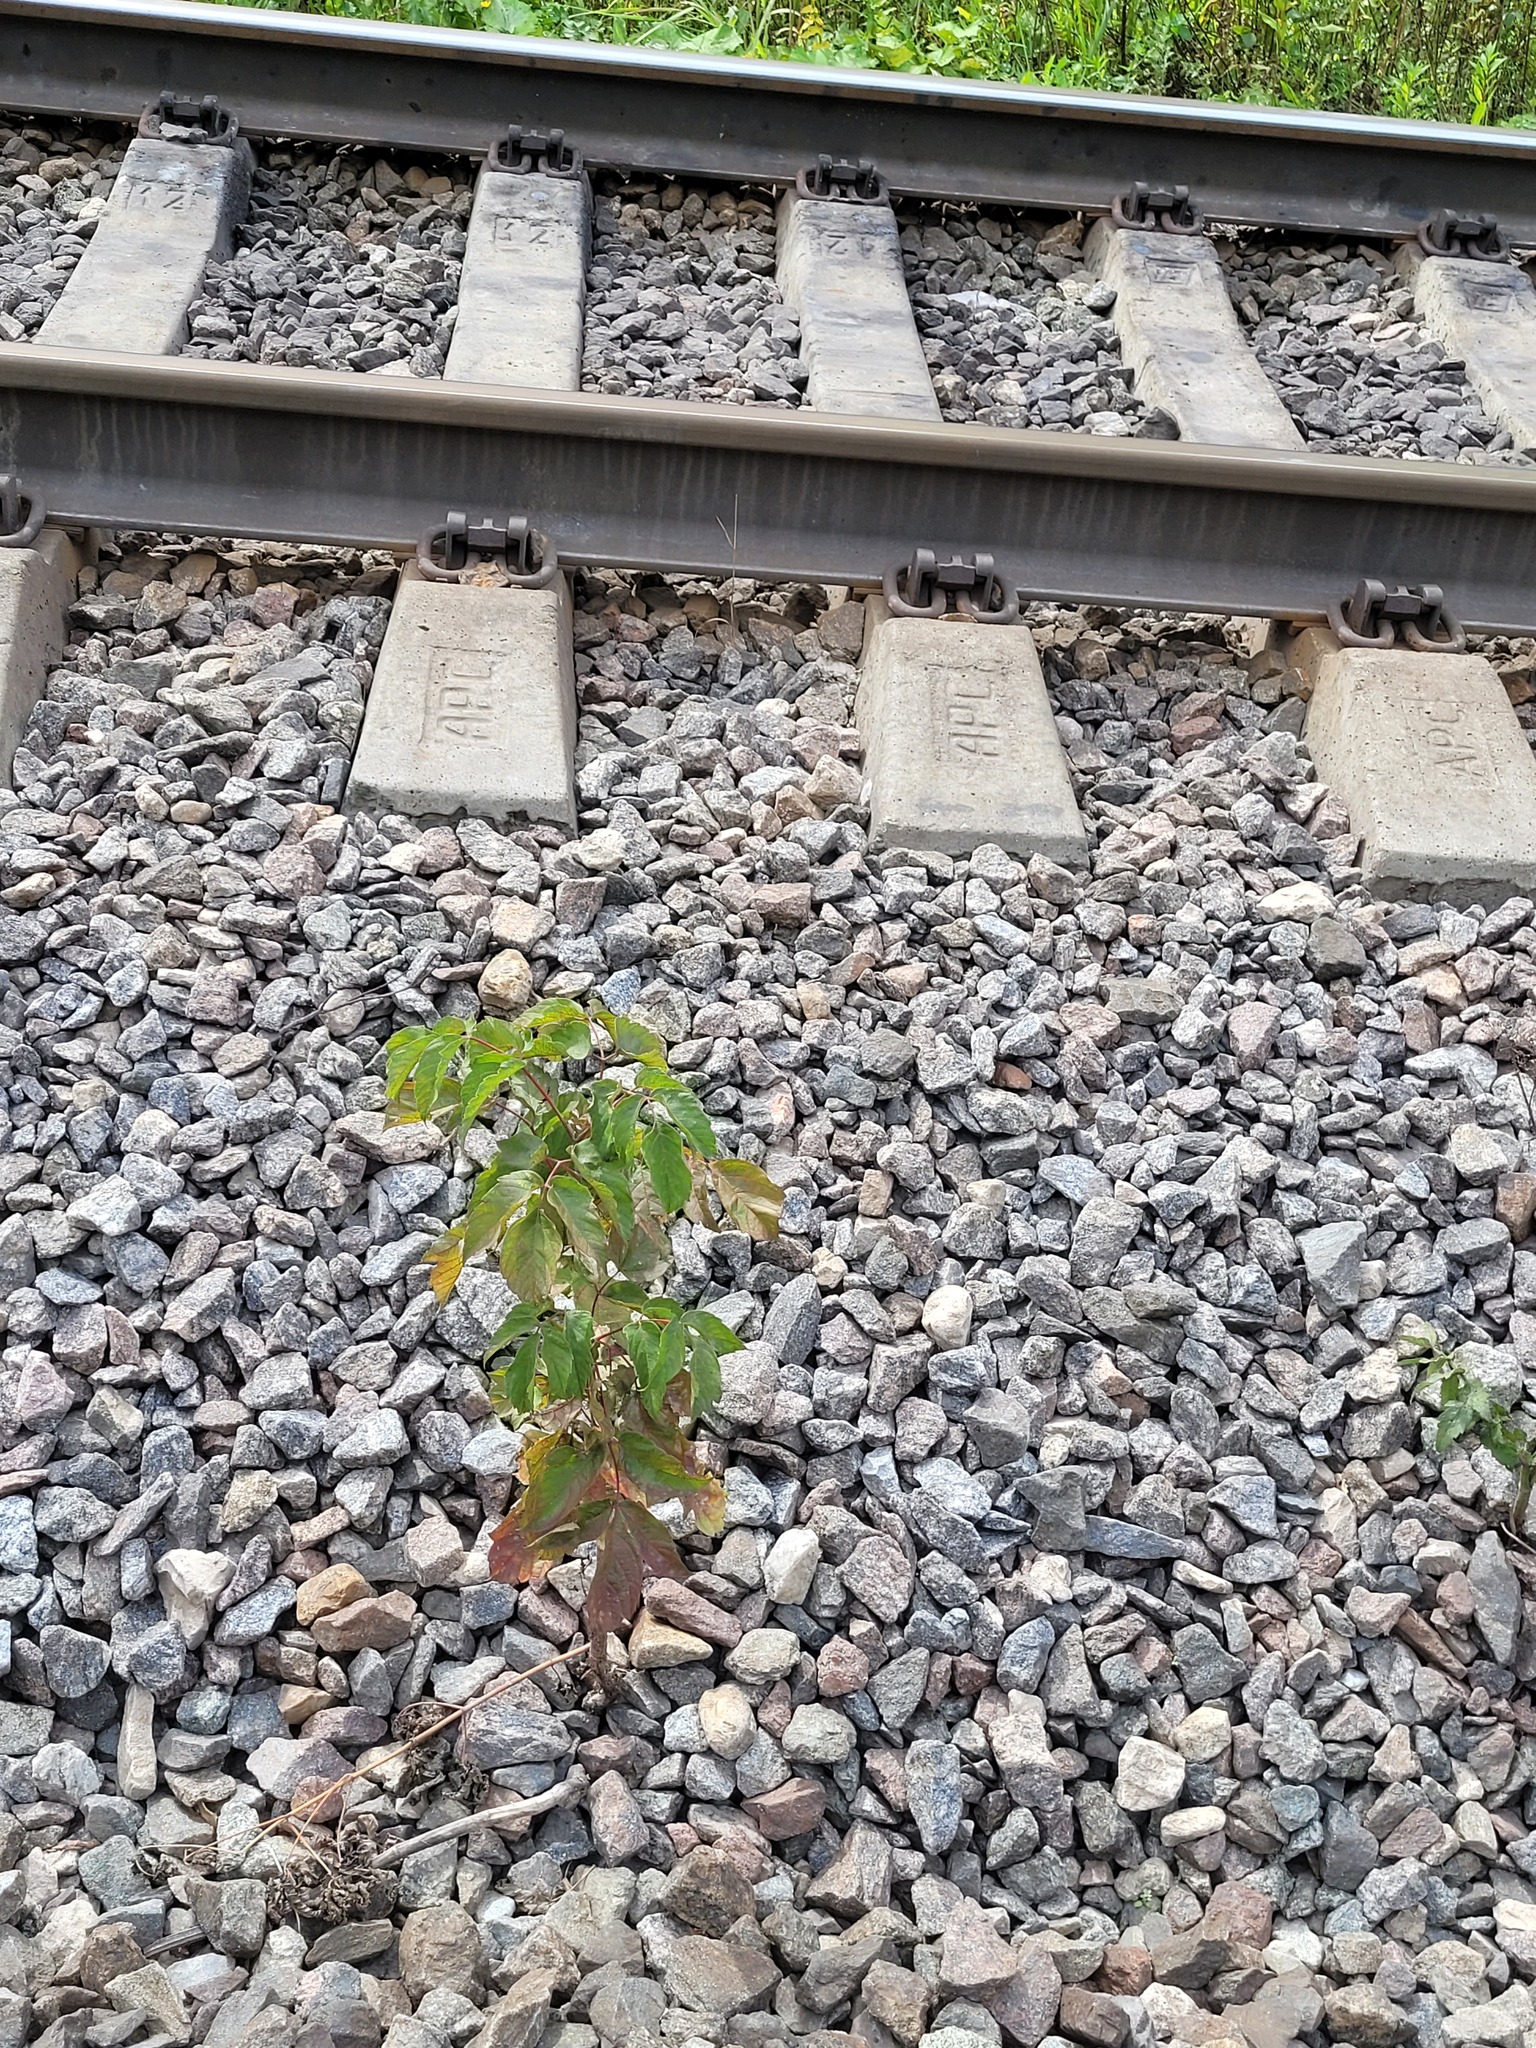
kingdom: Plantae
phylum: Tracheophyta
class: Magnoliopsida
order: Sapindales
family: Sapindaceae
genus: Acer
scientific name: Acer negundo
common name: Ashleaf maple
